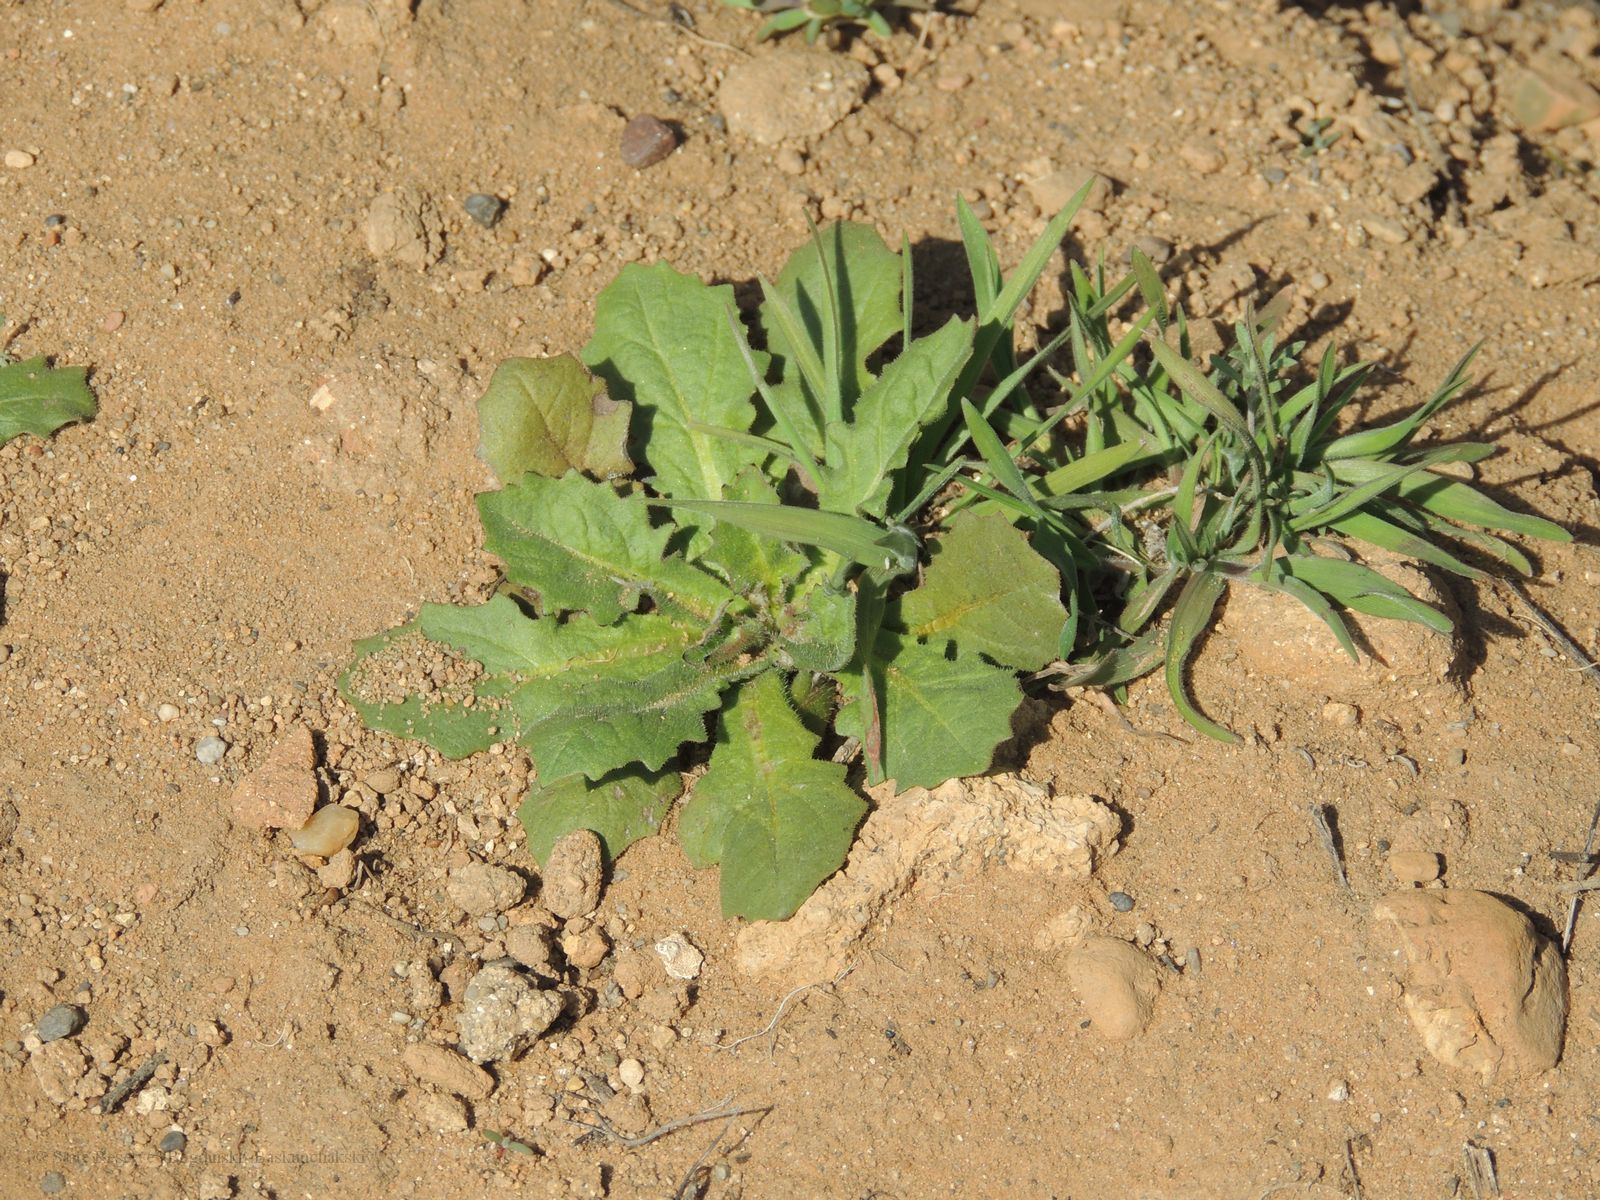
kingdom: Plantae
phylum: Tracheophyta
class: Magnoliopsida
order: Asterales
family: Asteraceae
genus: Crepis
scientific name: Crepis sancta
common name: Hawk's-beard
